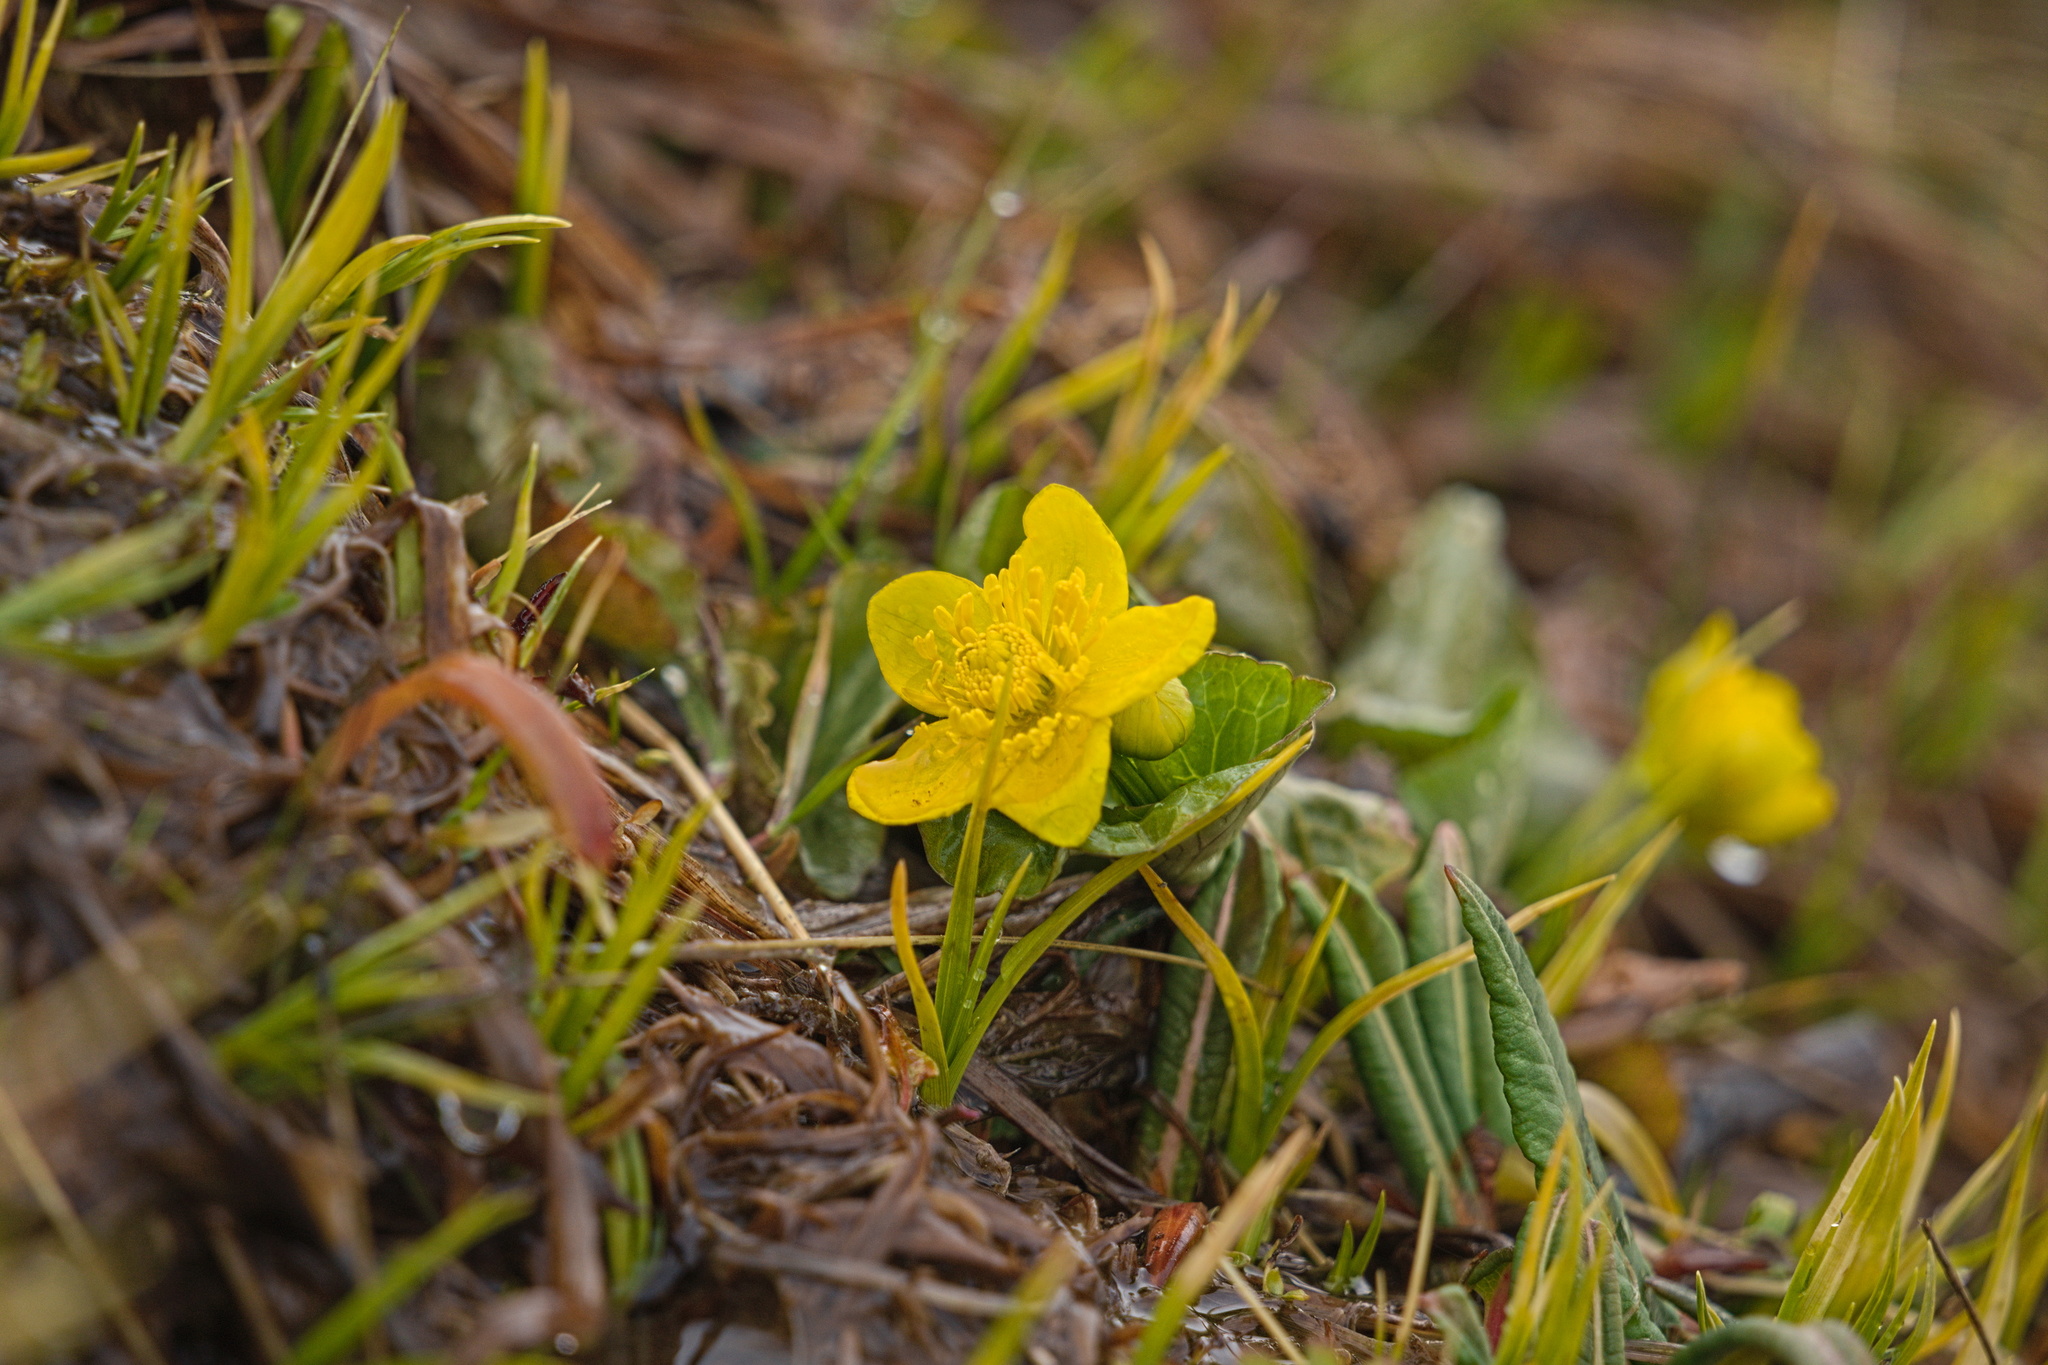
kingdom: Plantae
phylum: Tracheophyta
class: Magnoliopsida
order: Ranunculales
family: Ranunculaceae
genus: Caltha
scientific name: Caltha palustris
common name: Marsh marigold
